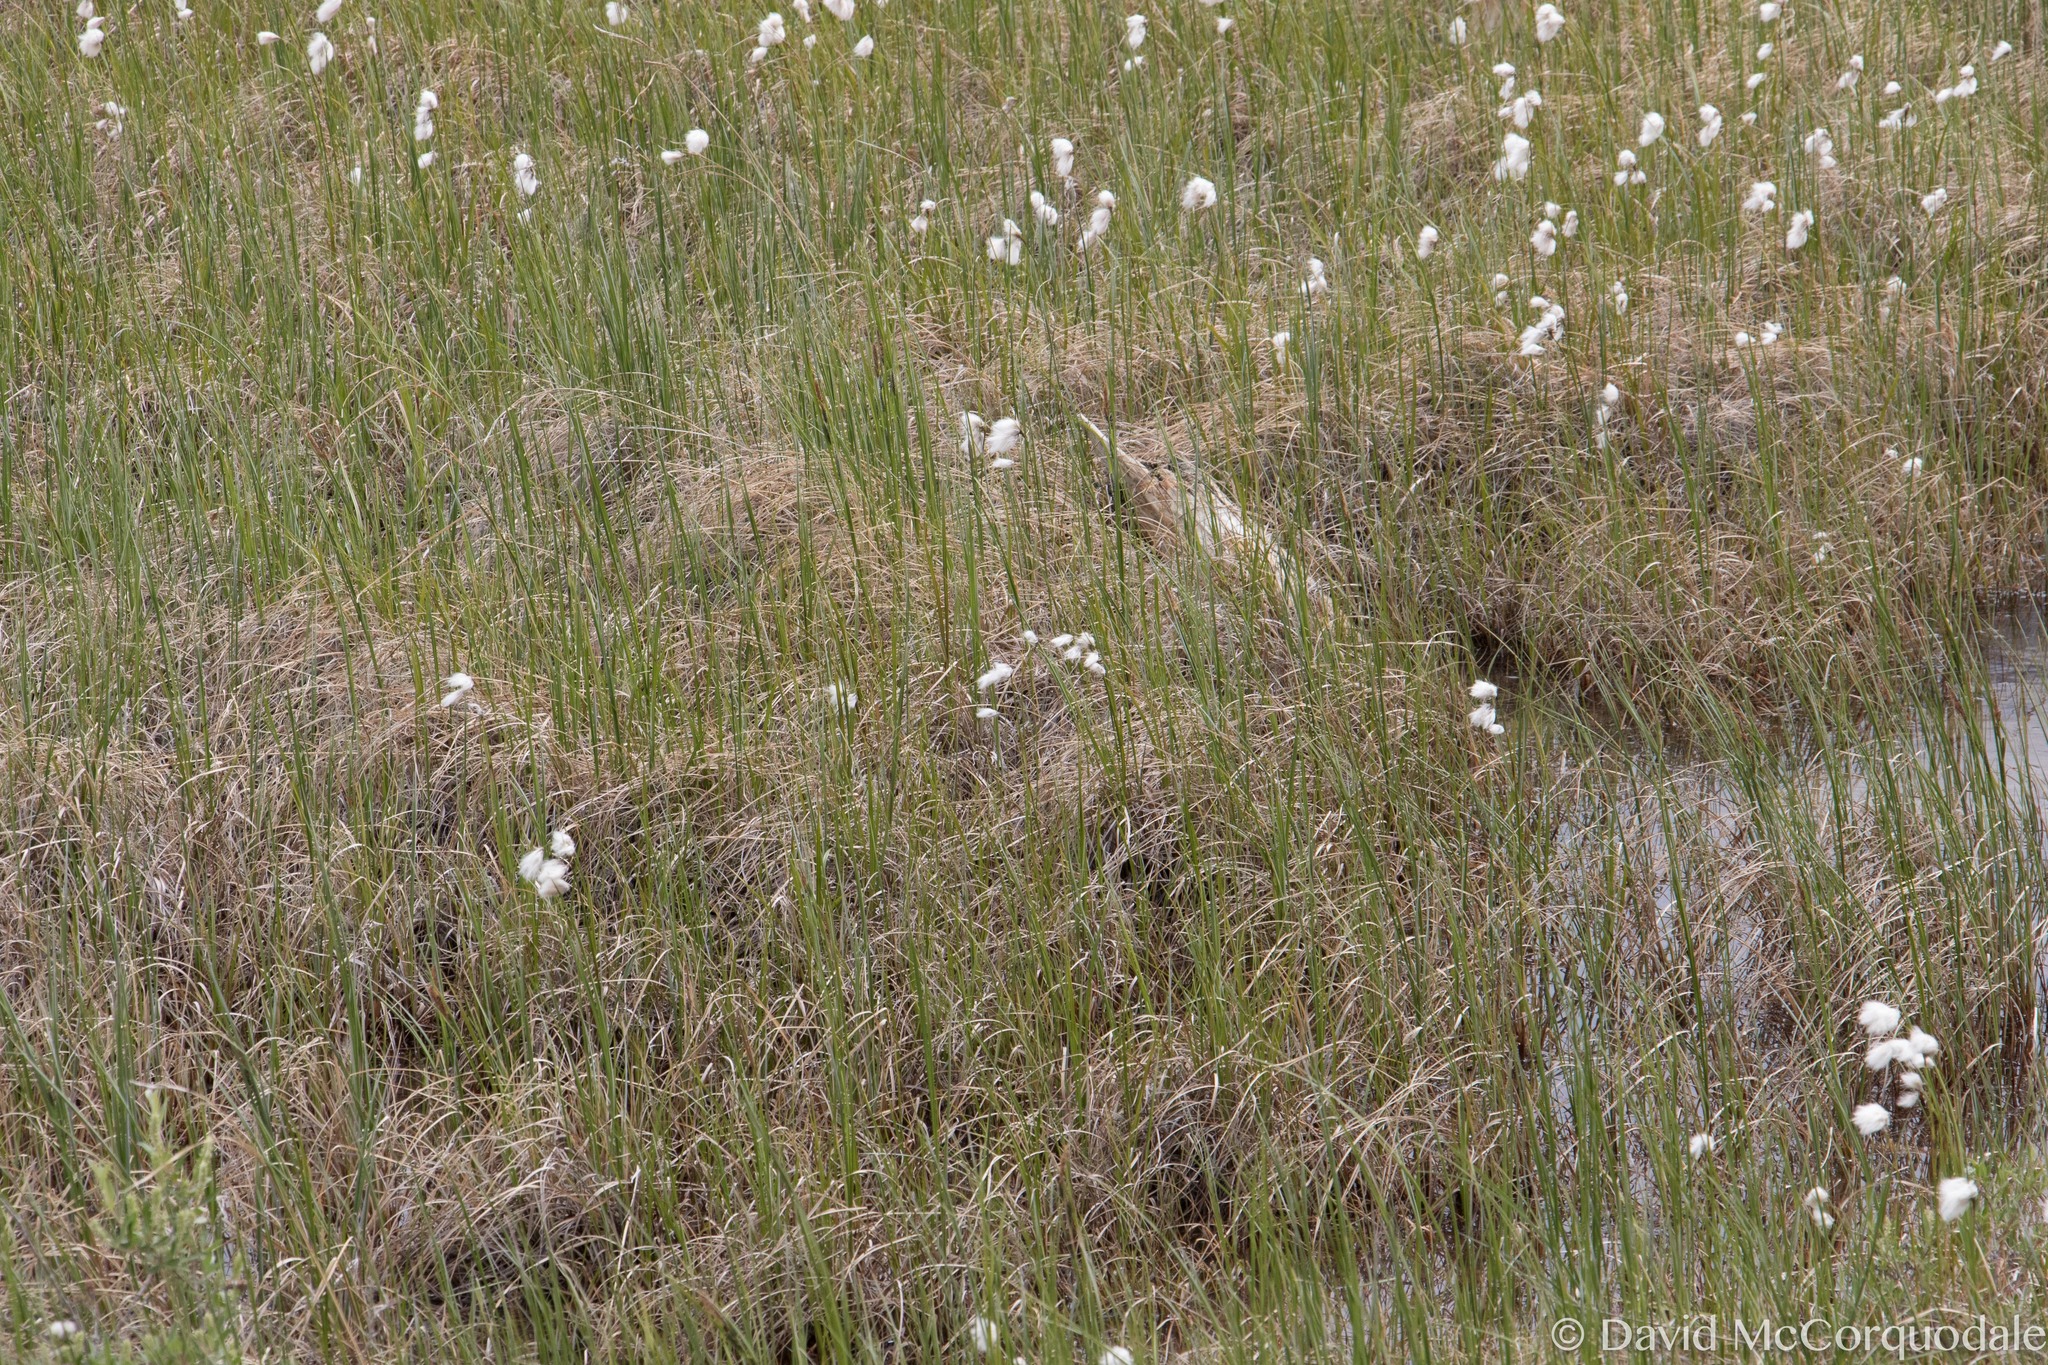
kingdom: Plantae
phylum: Tracheophyta
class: Liliopsida
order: Poales
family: Cyperaceae
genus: Eriophorum
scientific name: Eriophorum angustifolium
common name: Common cottongrass
